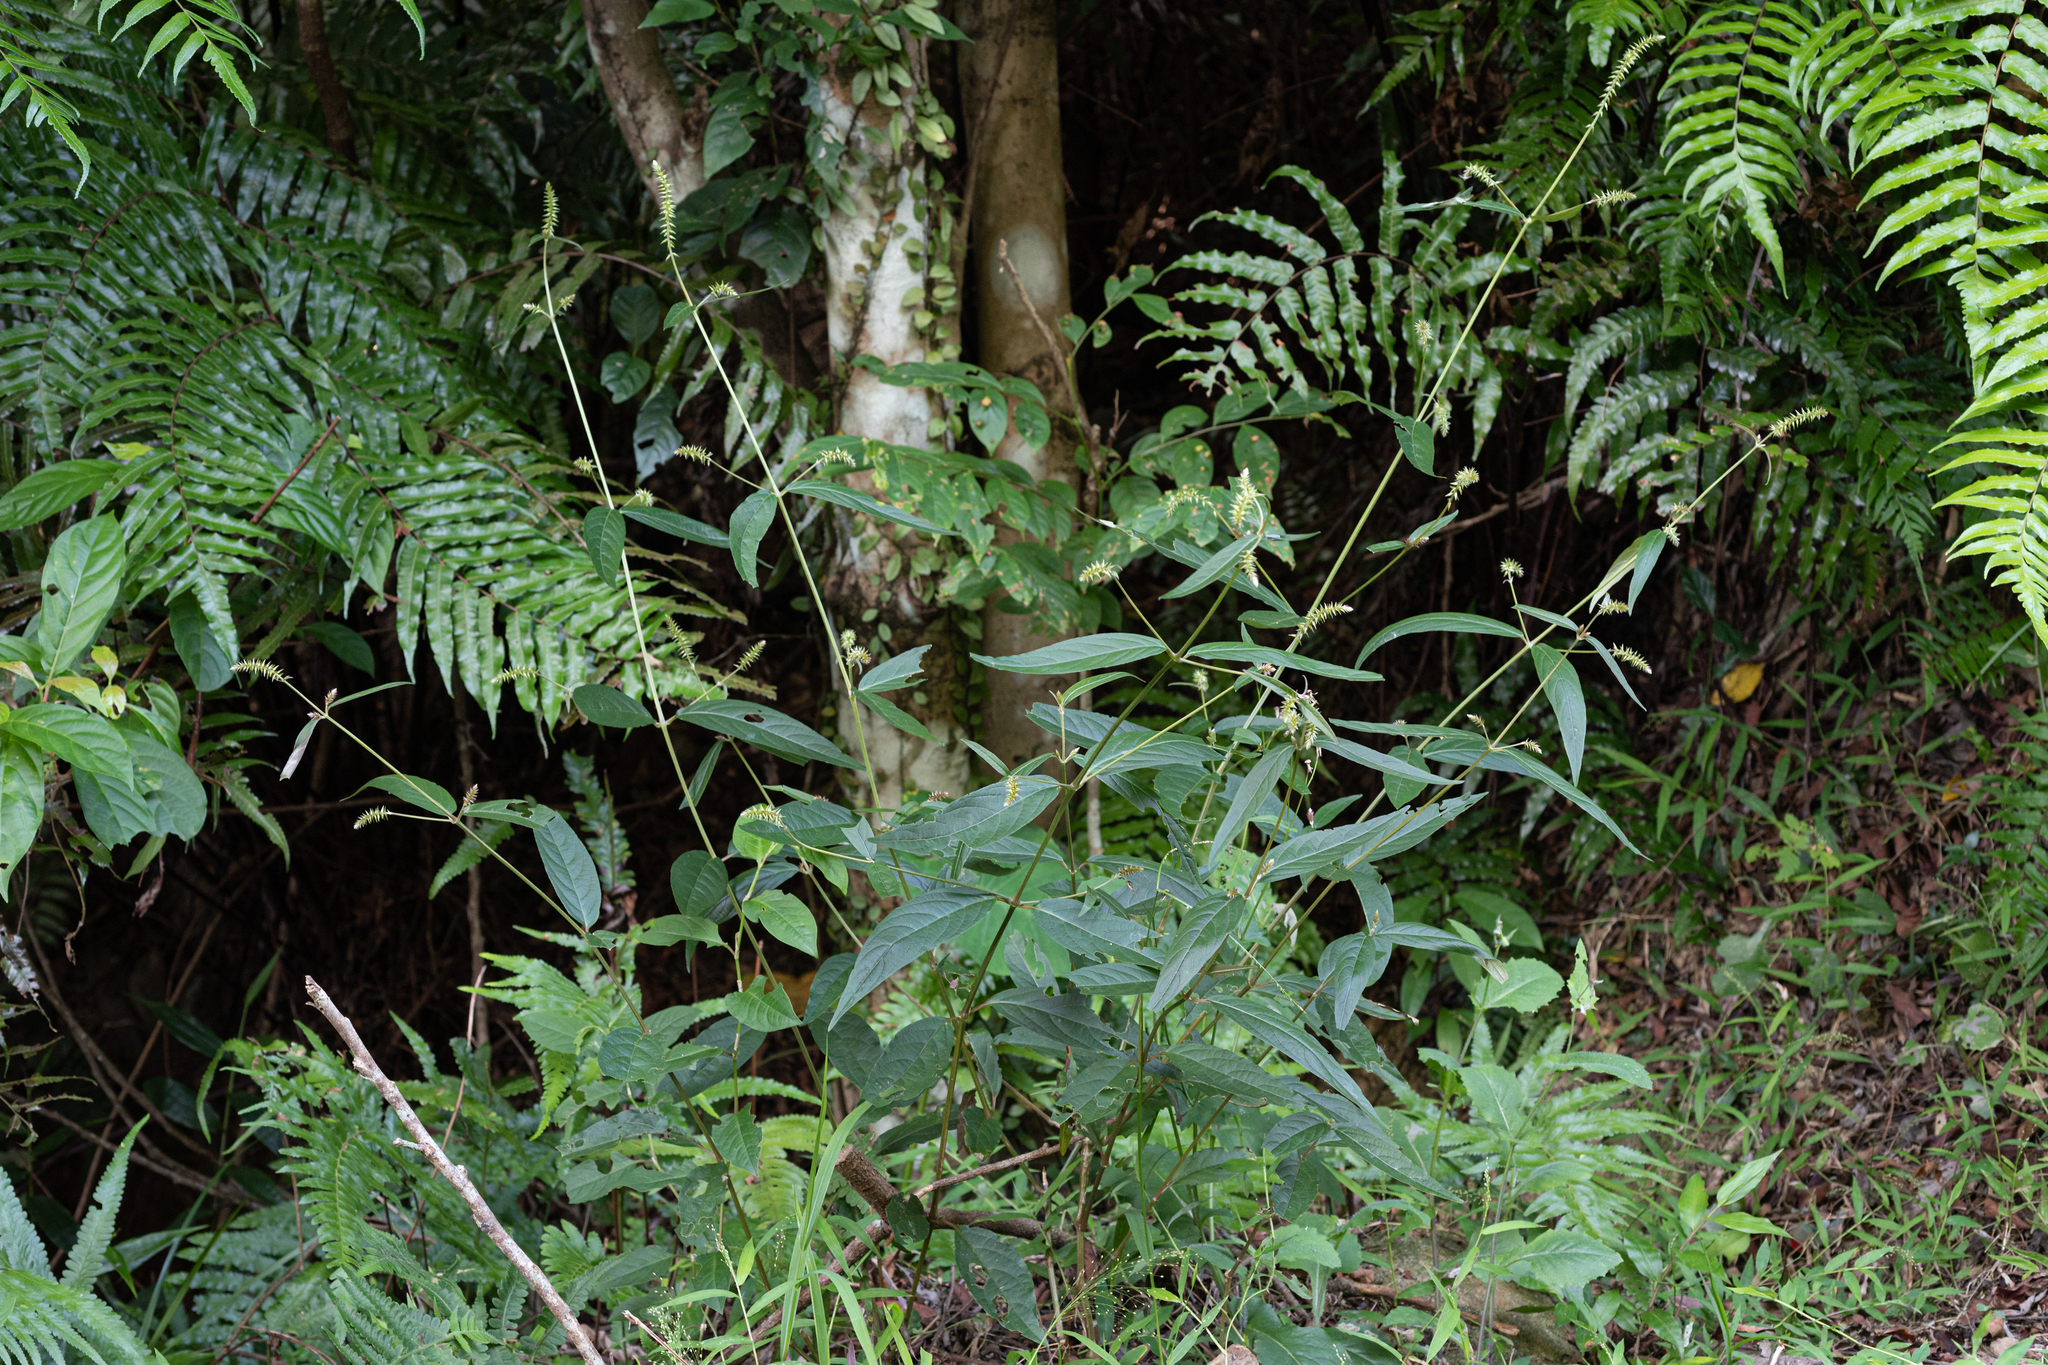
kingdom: Plantae
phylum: Tracheophyta
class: Magnoliopsida
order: Caryophyllales
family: Amaranthaceae
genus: Achyranthes
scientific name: Achyranthes bidentata
